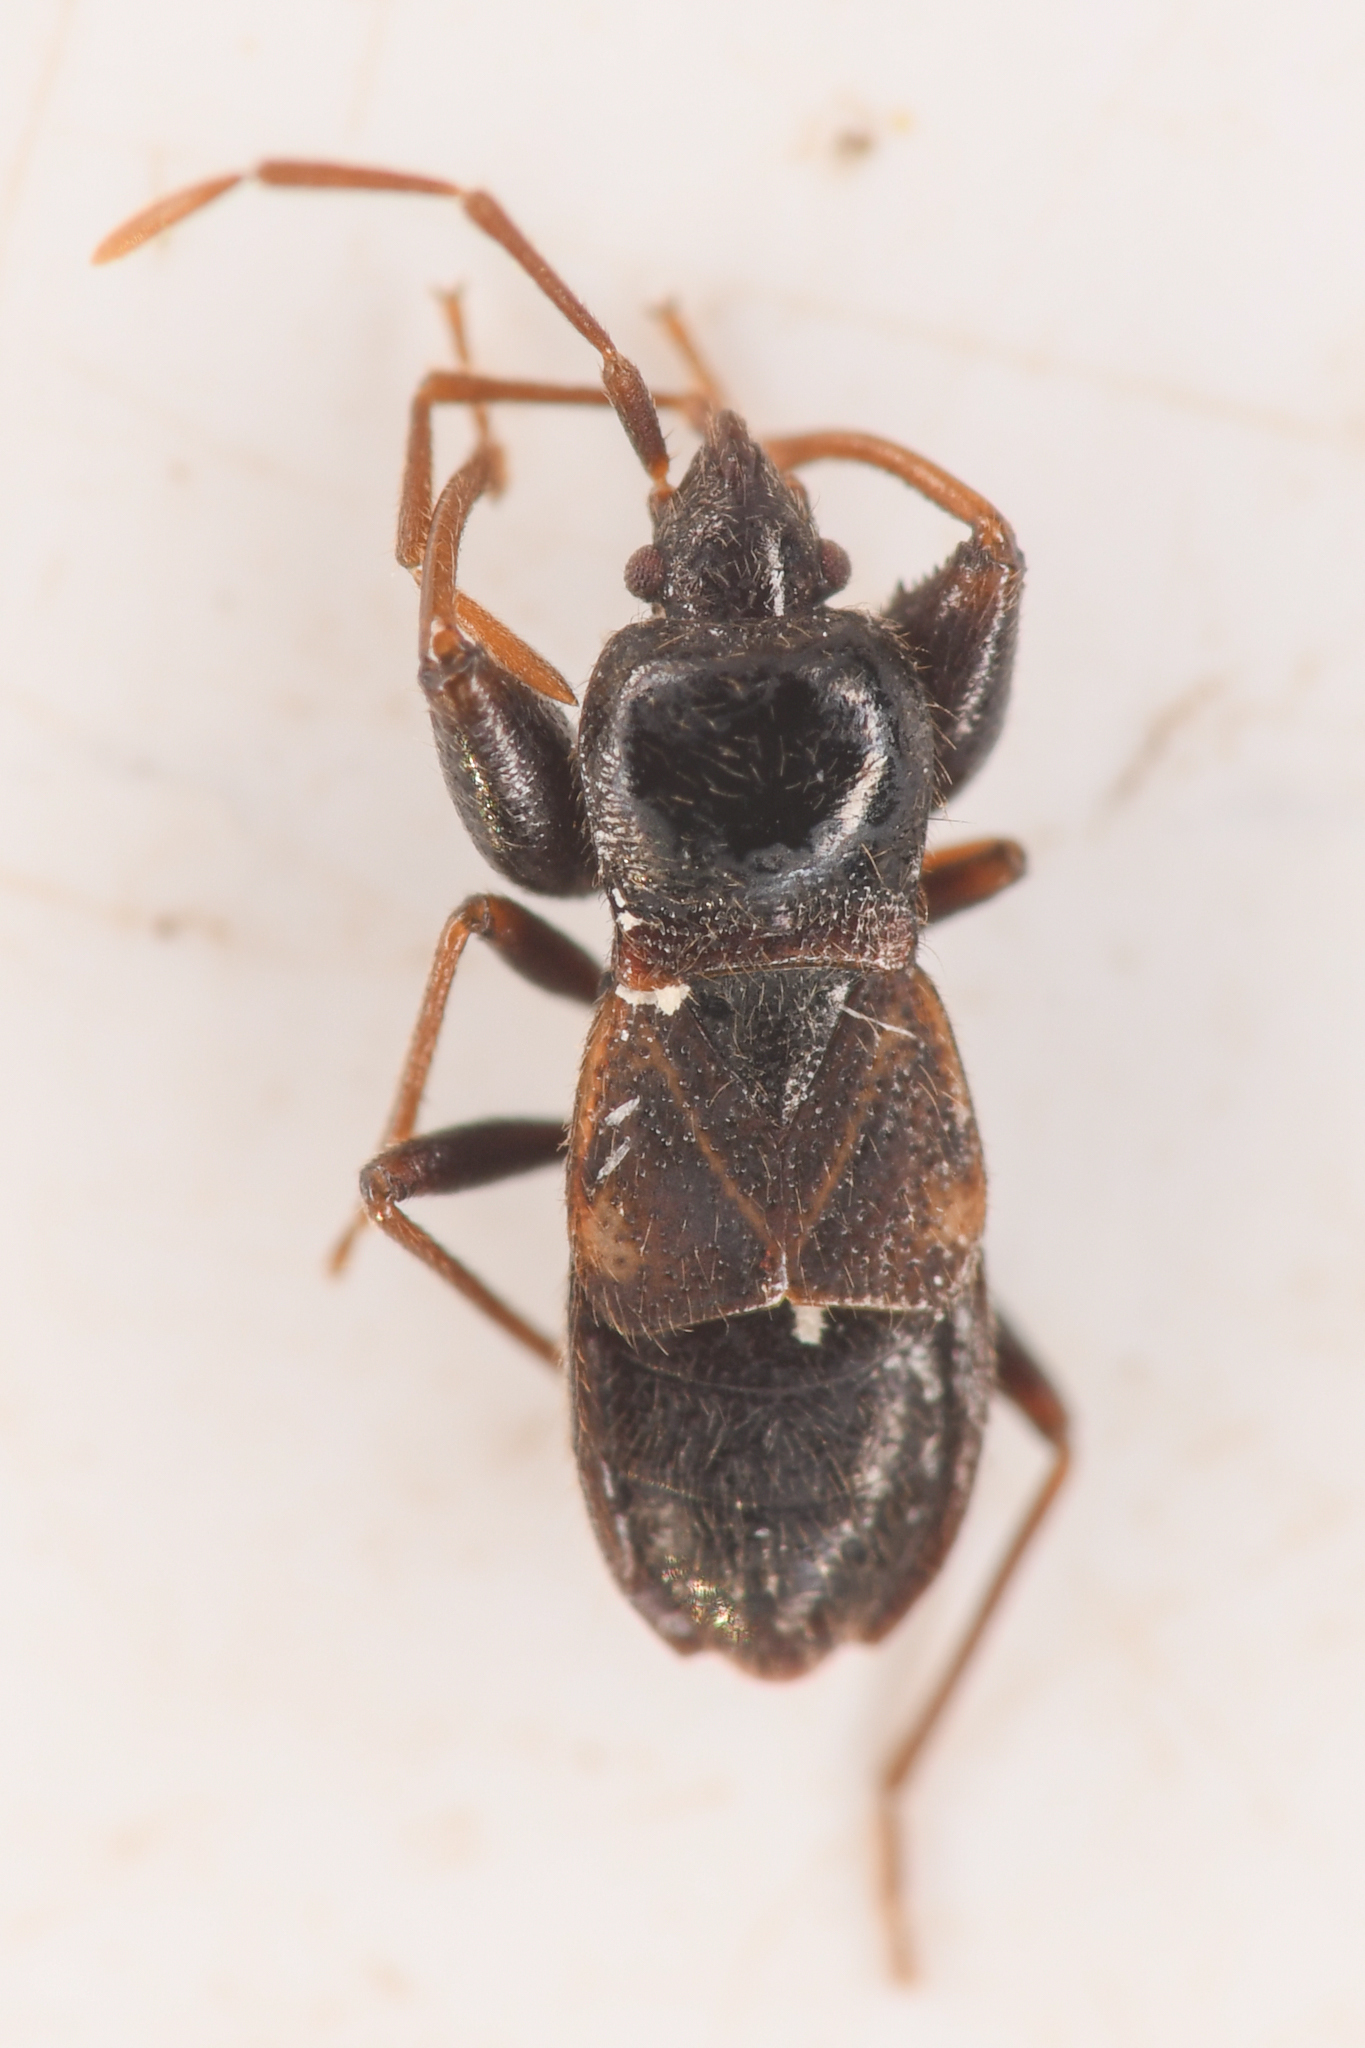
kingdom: Animalia
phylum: Arthropoda
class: Insecta
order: Hemiptera
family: Rhyparochromidae
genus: Thylochromus
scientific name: Thylochromus nitidulus
